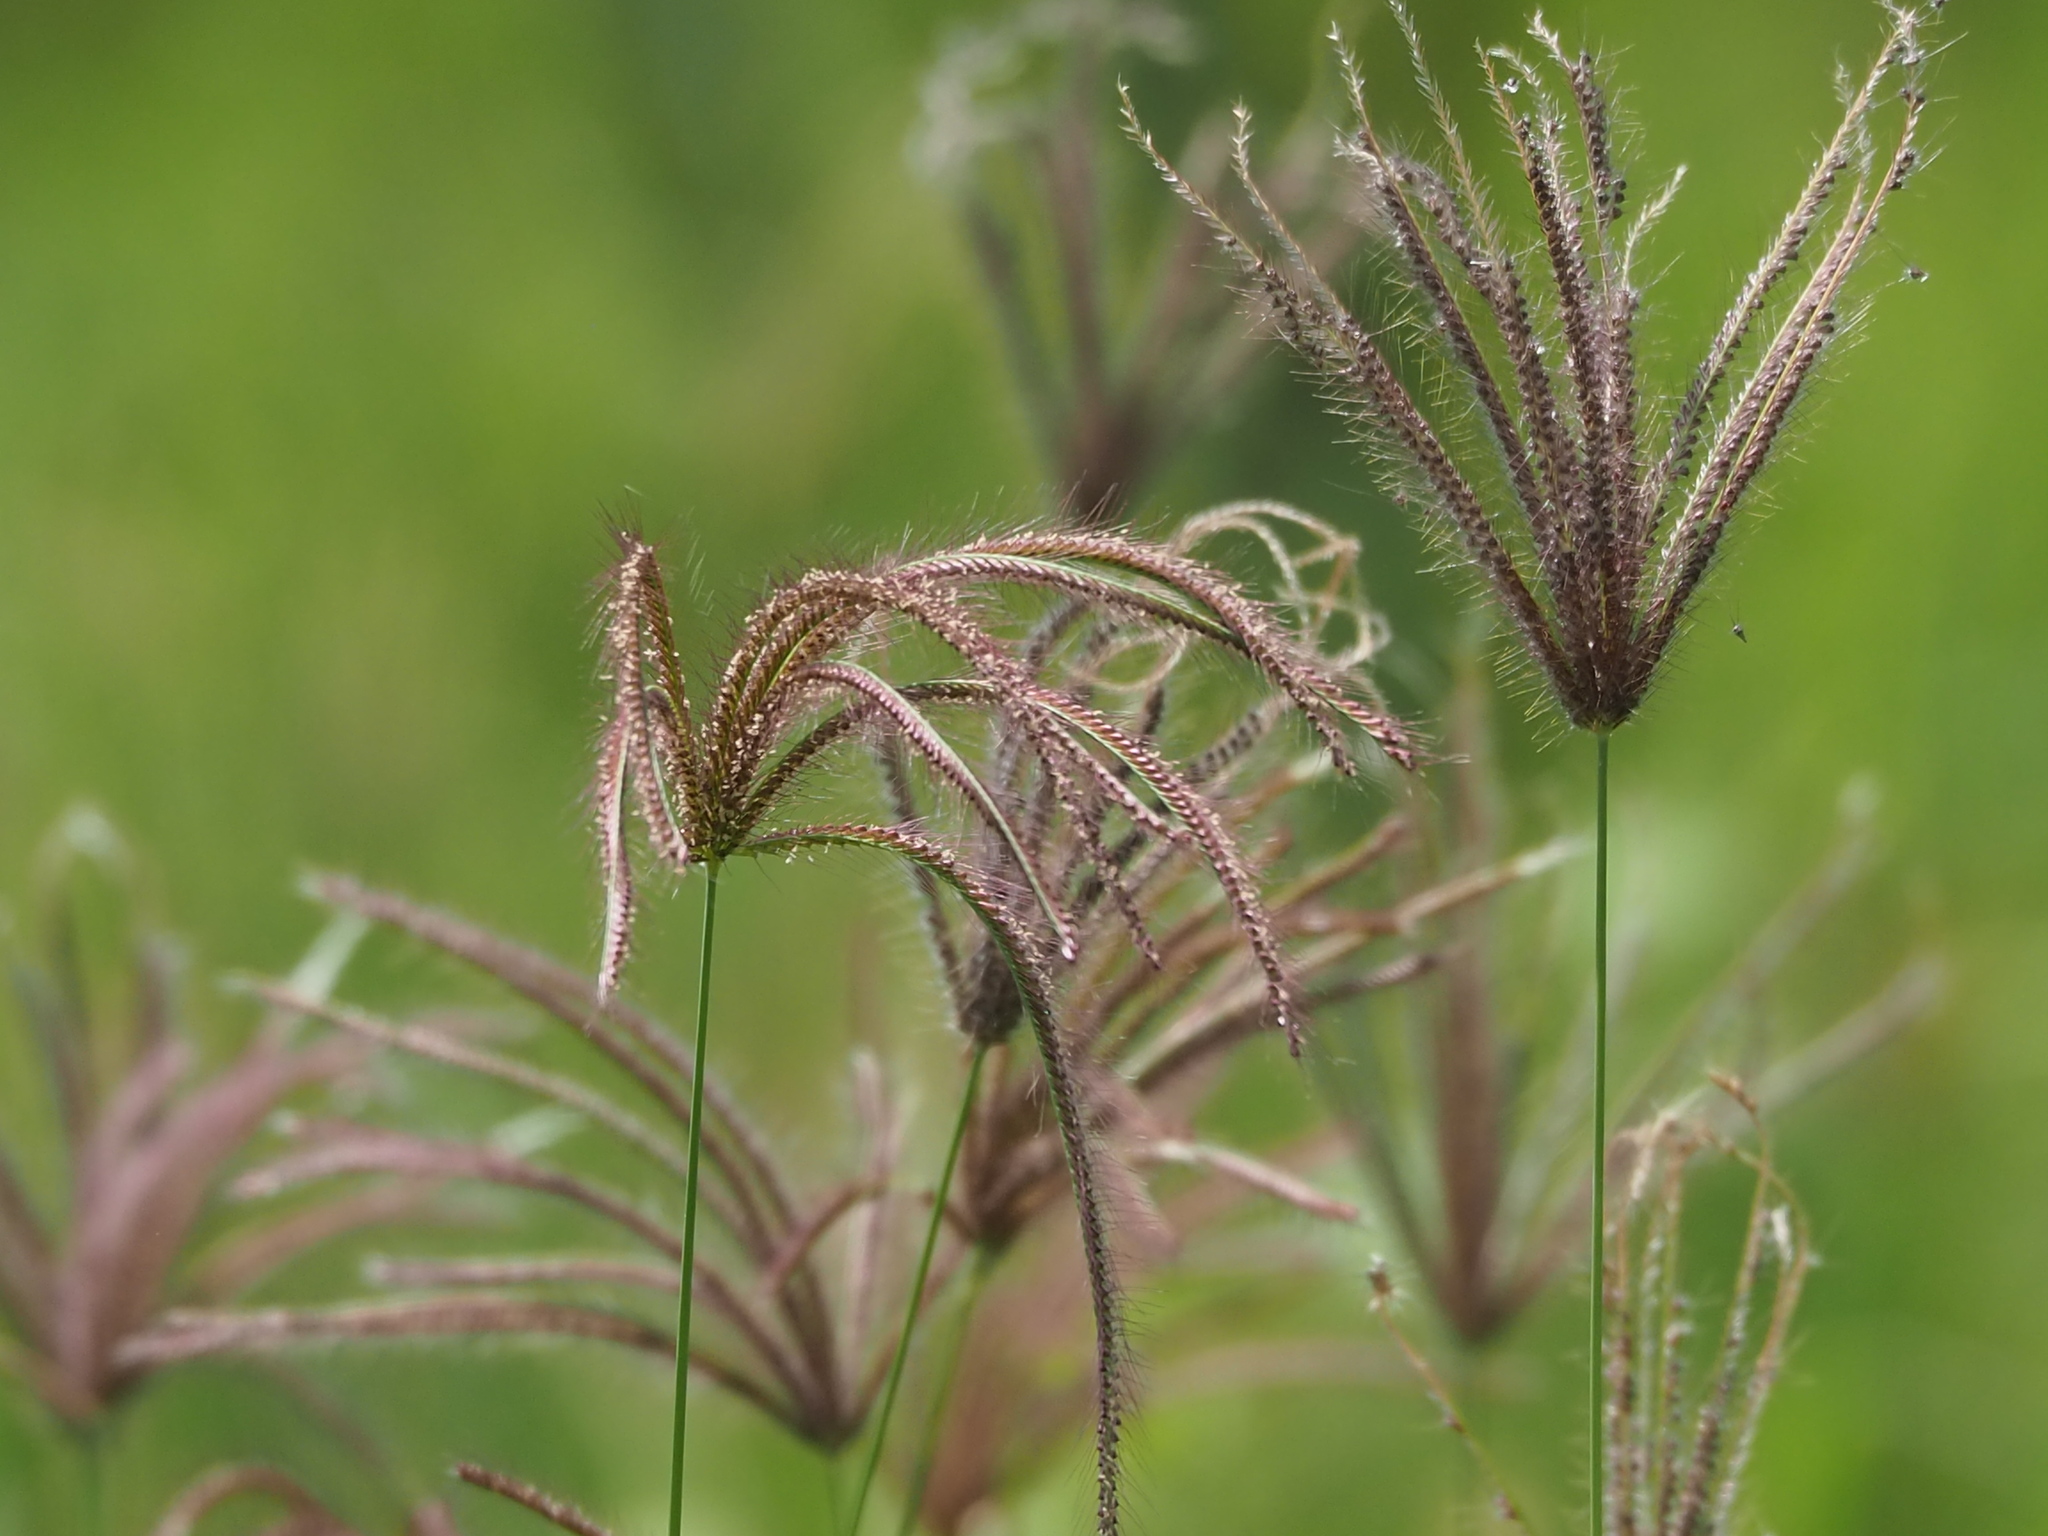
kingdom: Plantae
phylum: Tracheophyta
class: Liliopsida
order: Poales
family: Poaceae
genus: Chloris
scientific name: Chloris barbata
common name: Swollen fingergrass
